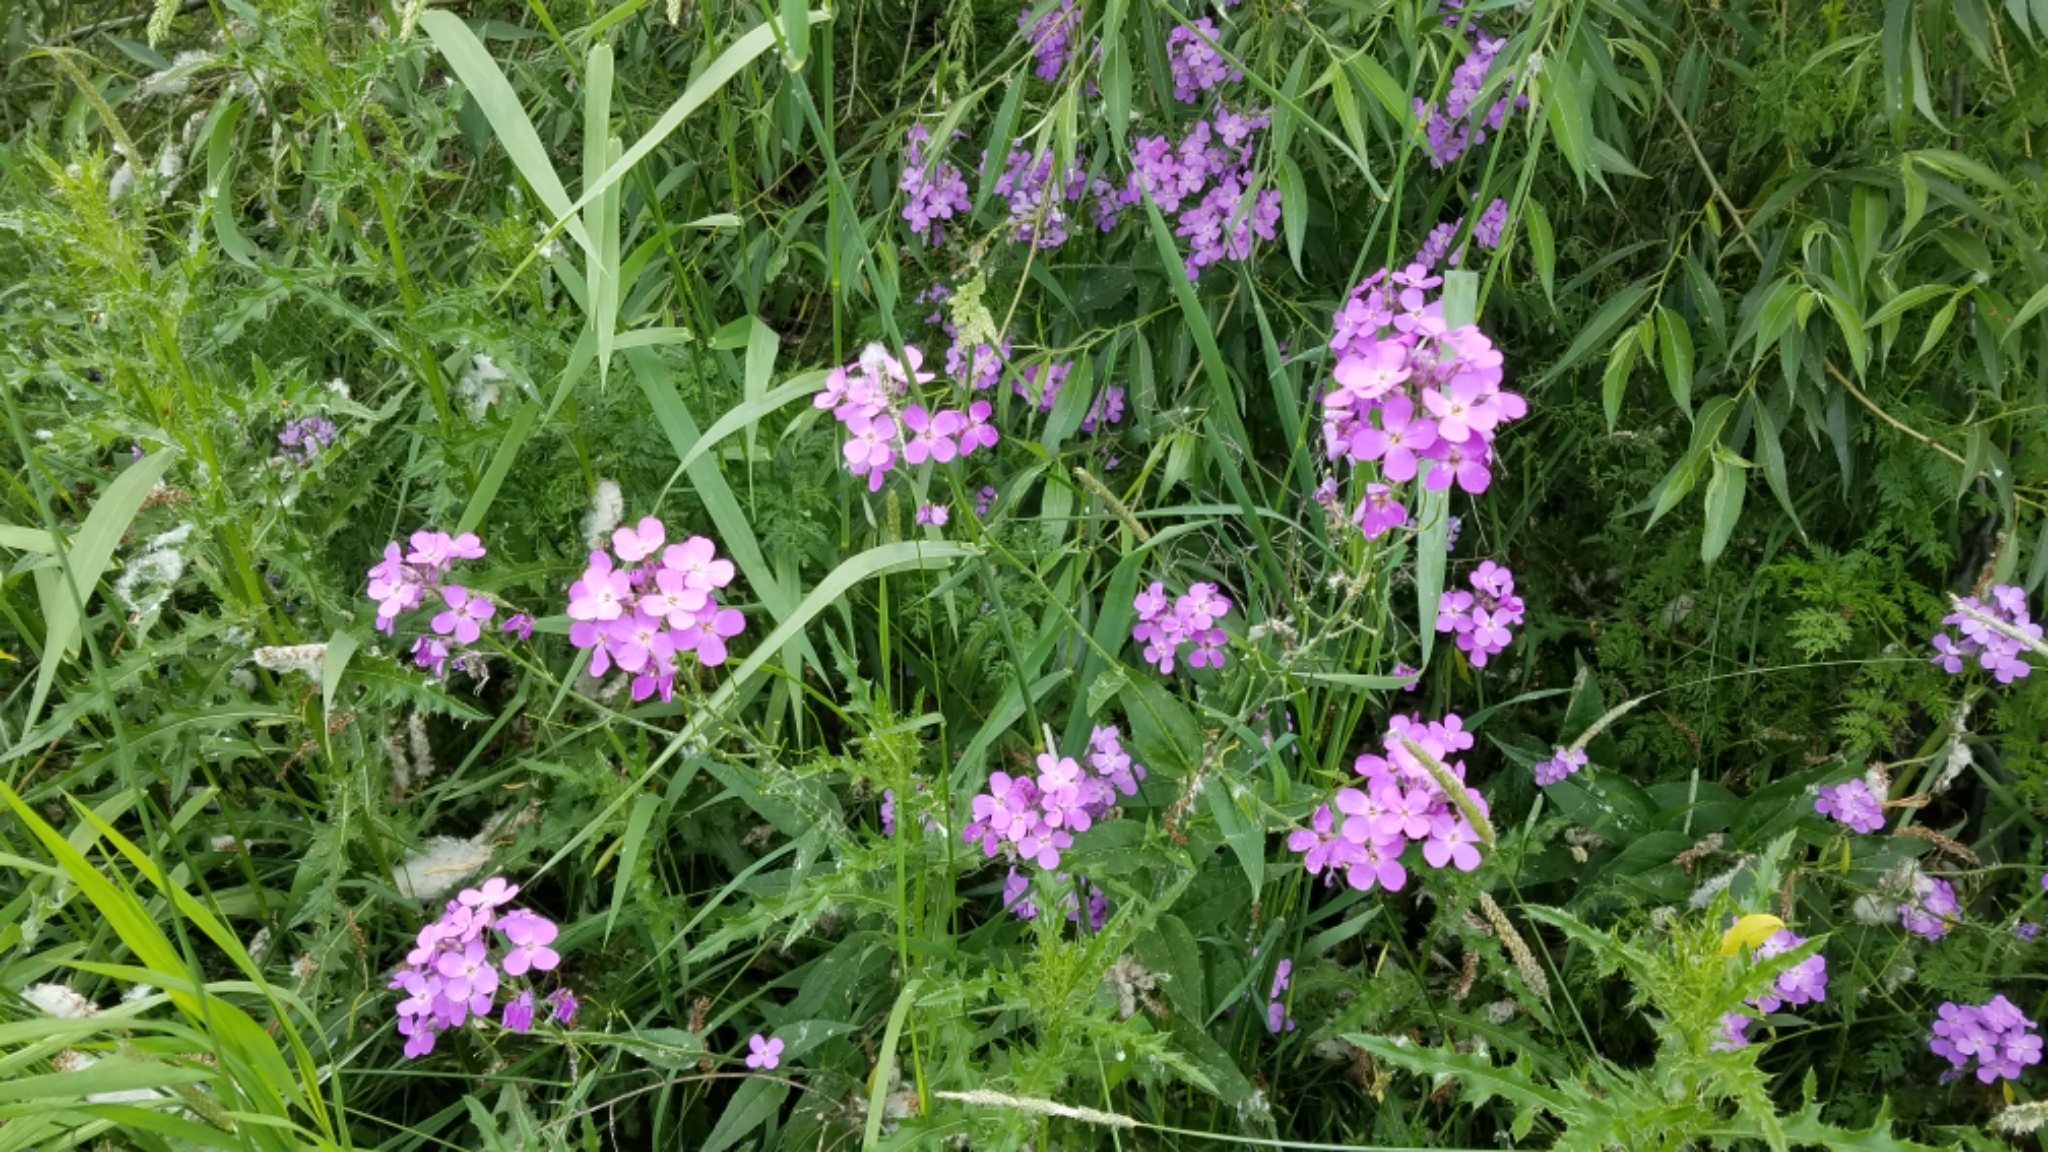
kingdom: Plantae
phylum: Tracheophyta
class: Magnoliopsida
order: Brassicales
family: Brassicaceae
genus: Hesperis
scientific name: Hesperis matronalis
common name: Dame's-violet
